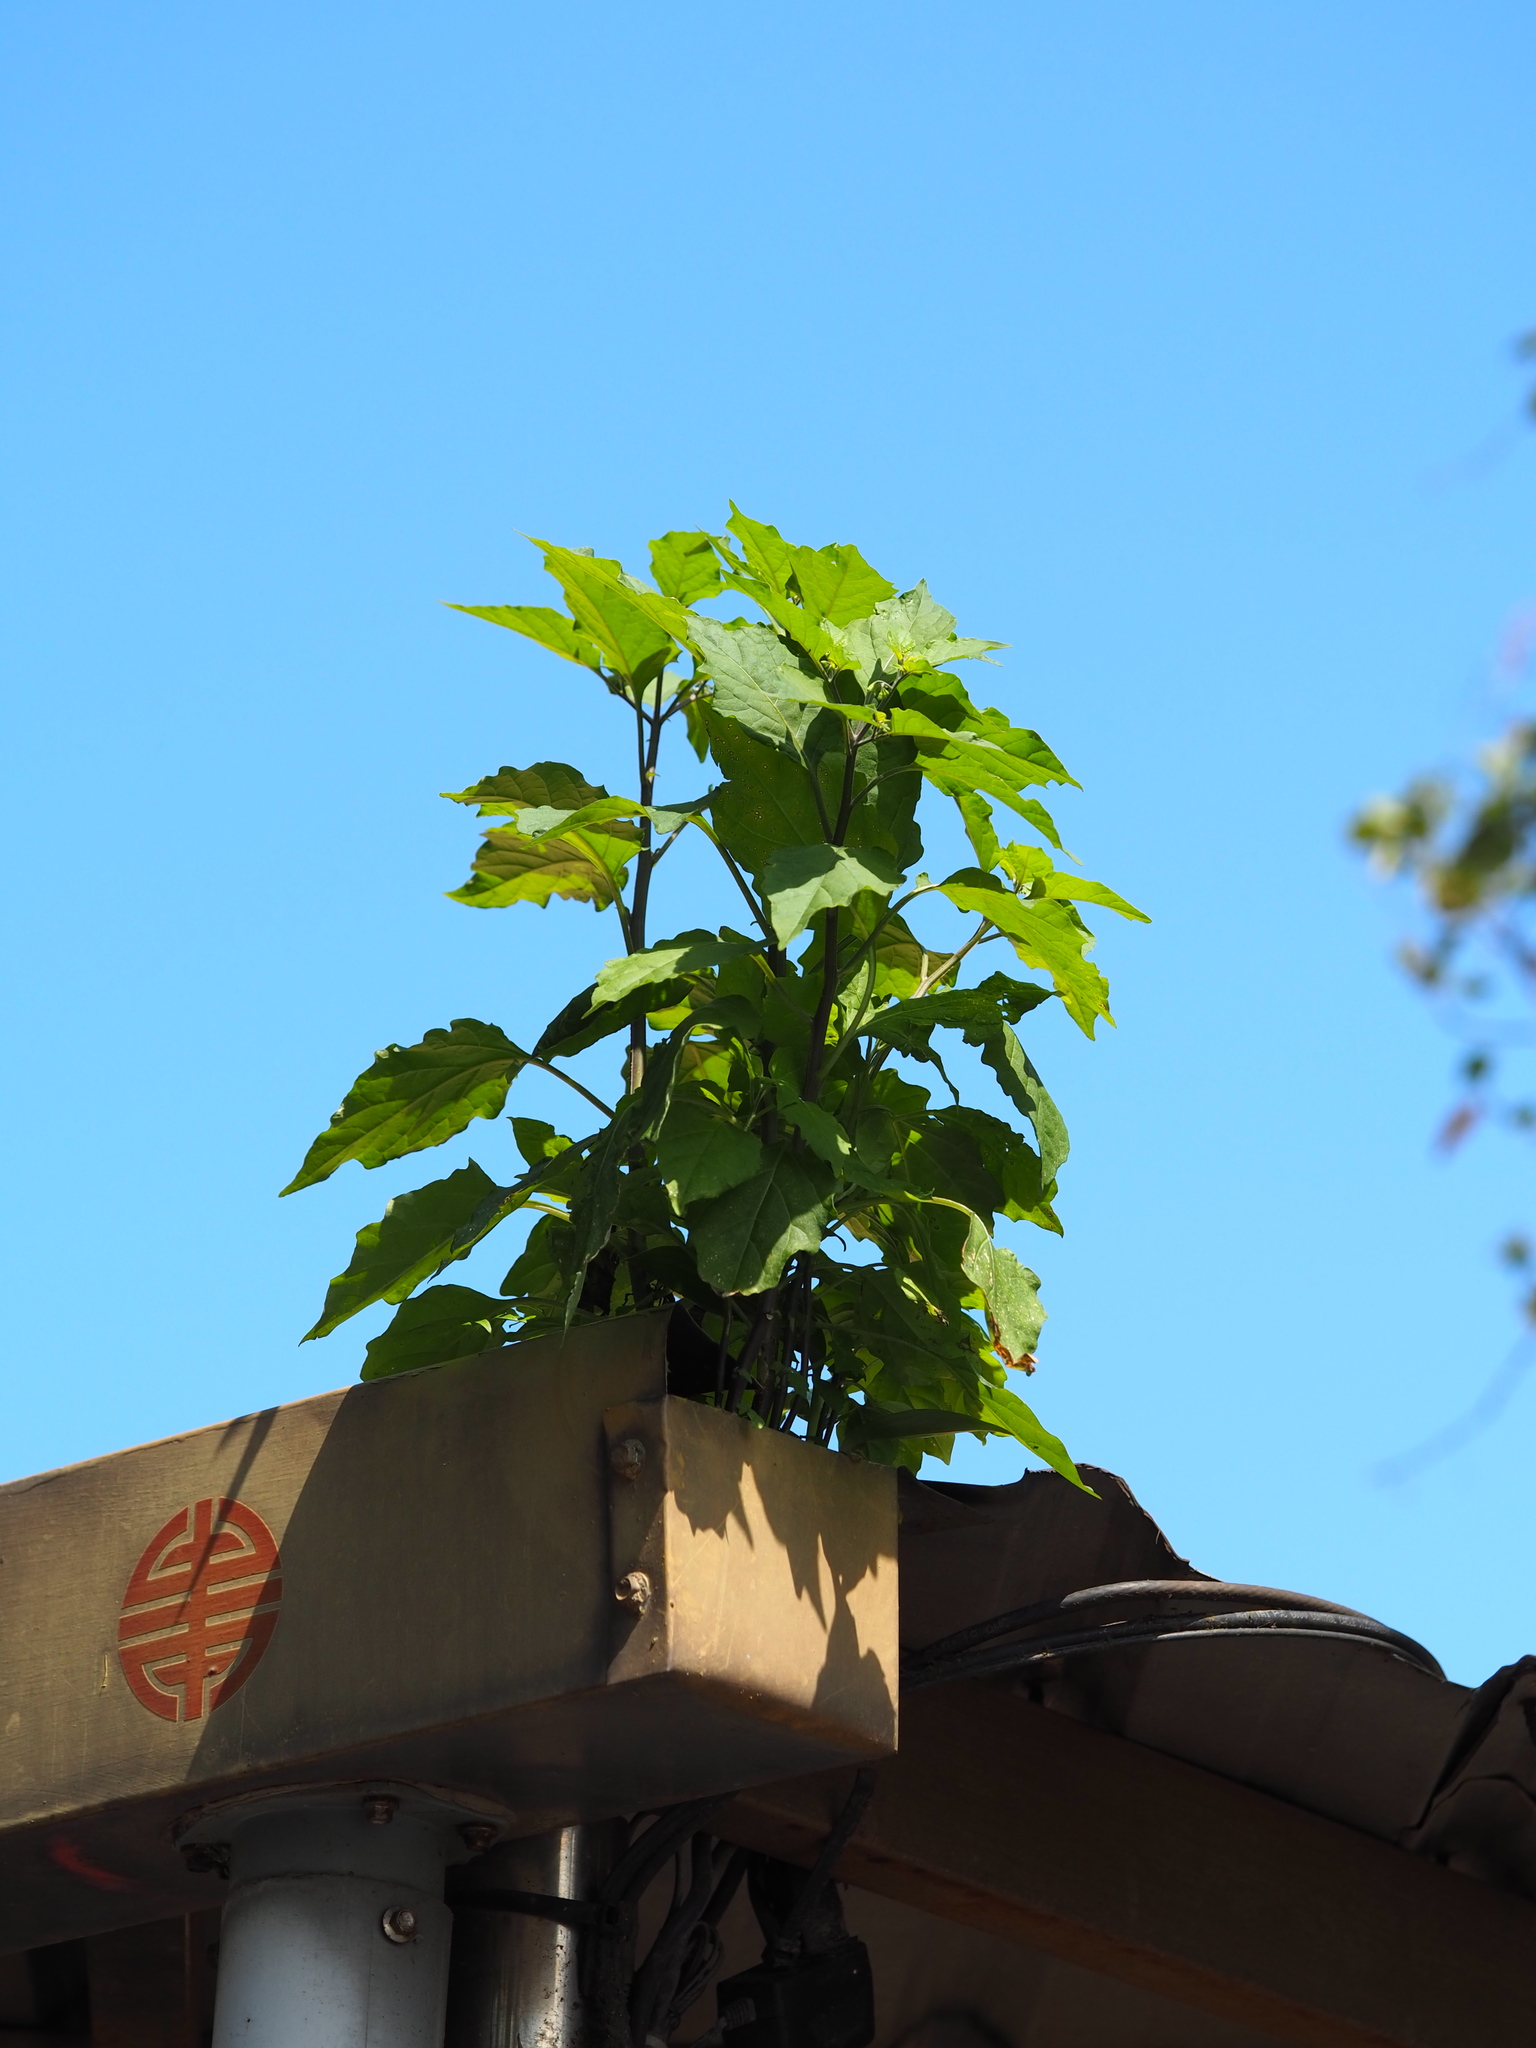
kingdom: Plantae
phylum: Tracheophyta
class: Magnoliopsida
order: Solanales
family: Solanaceae
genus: Solanum
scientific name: Solanum
